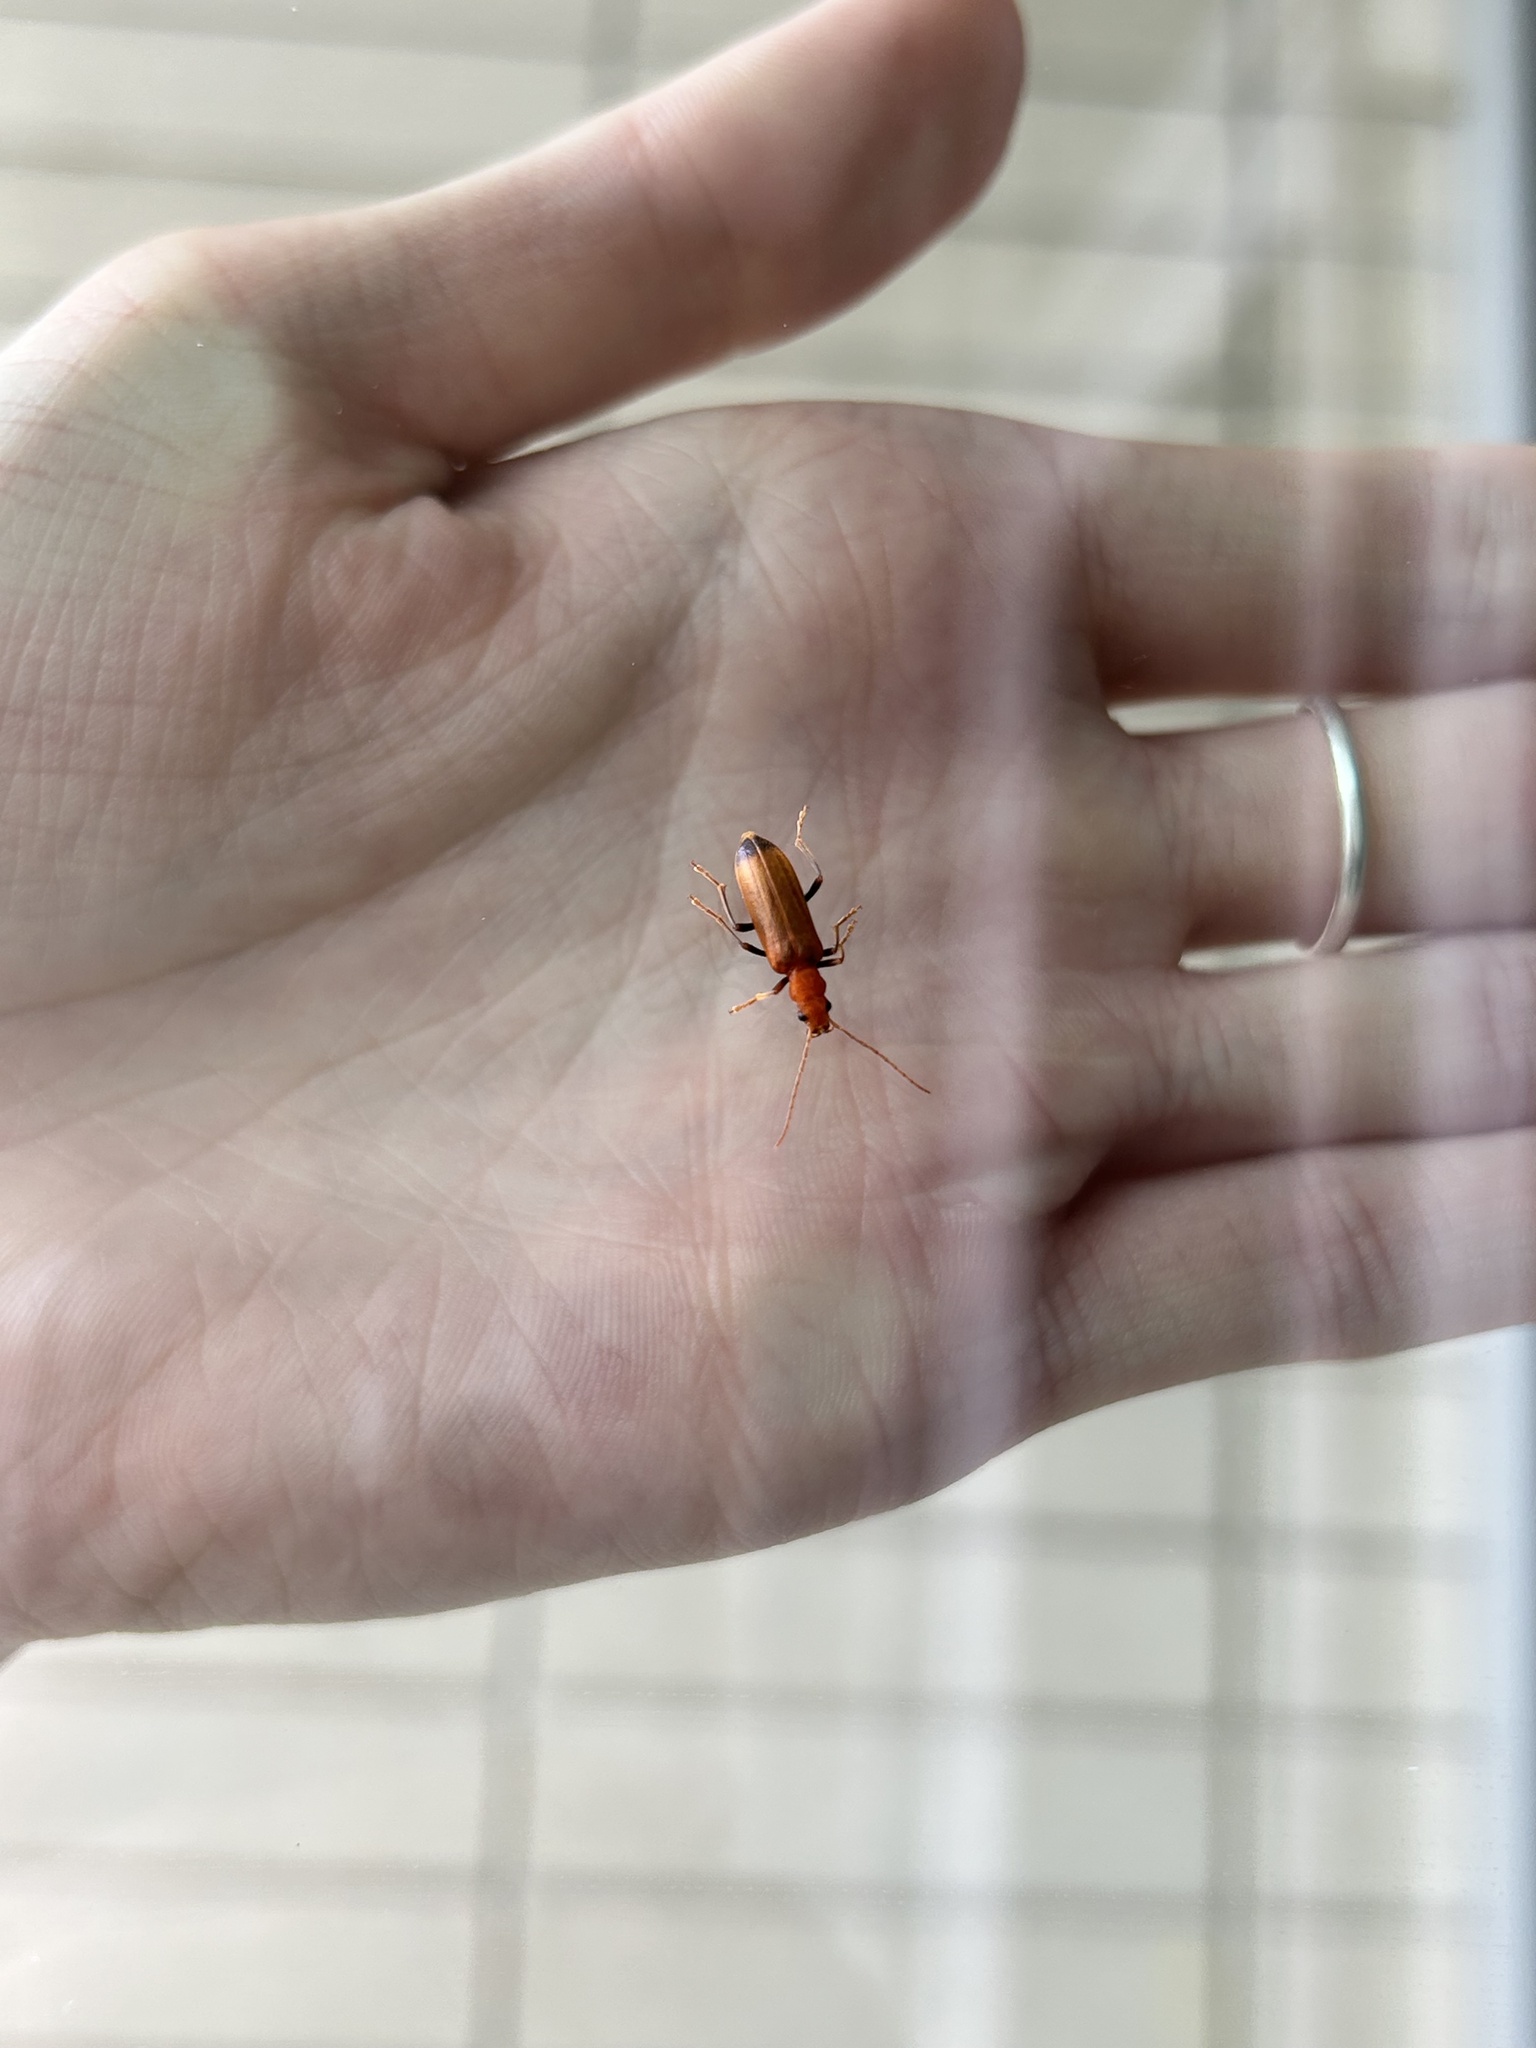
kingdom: Animalia
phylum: Arthropoda
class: Insecta
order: Coleoptera
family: Oedemeridae
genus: Nacerdes
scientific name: Nacerdes melanura
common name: Wharf borer
